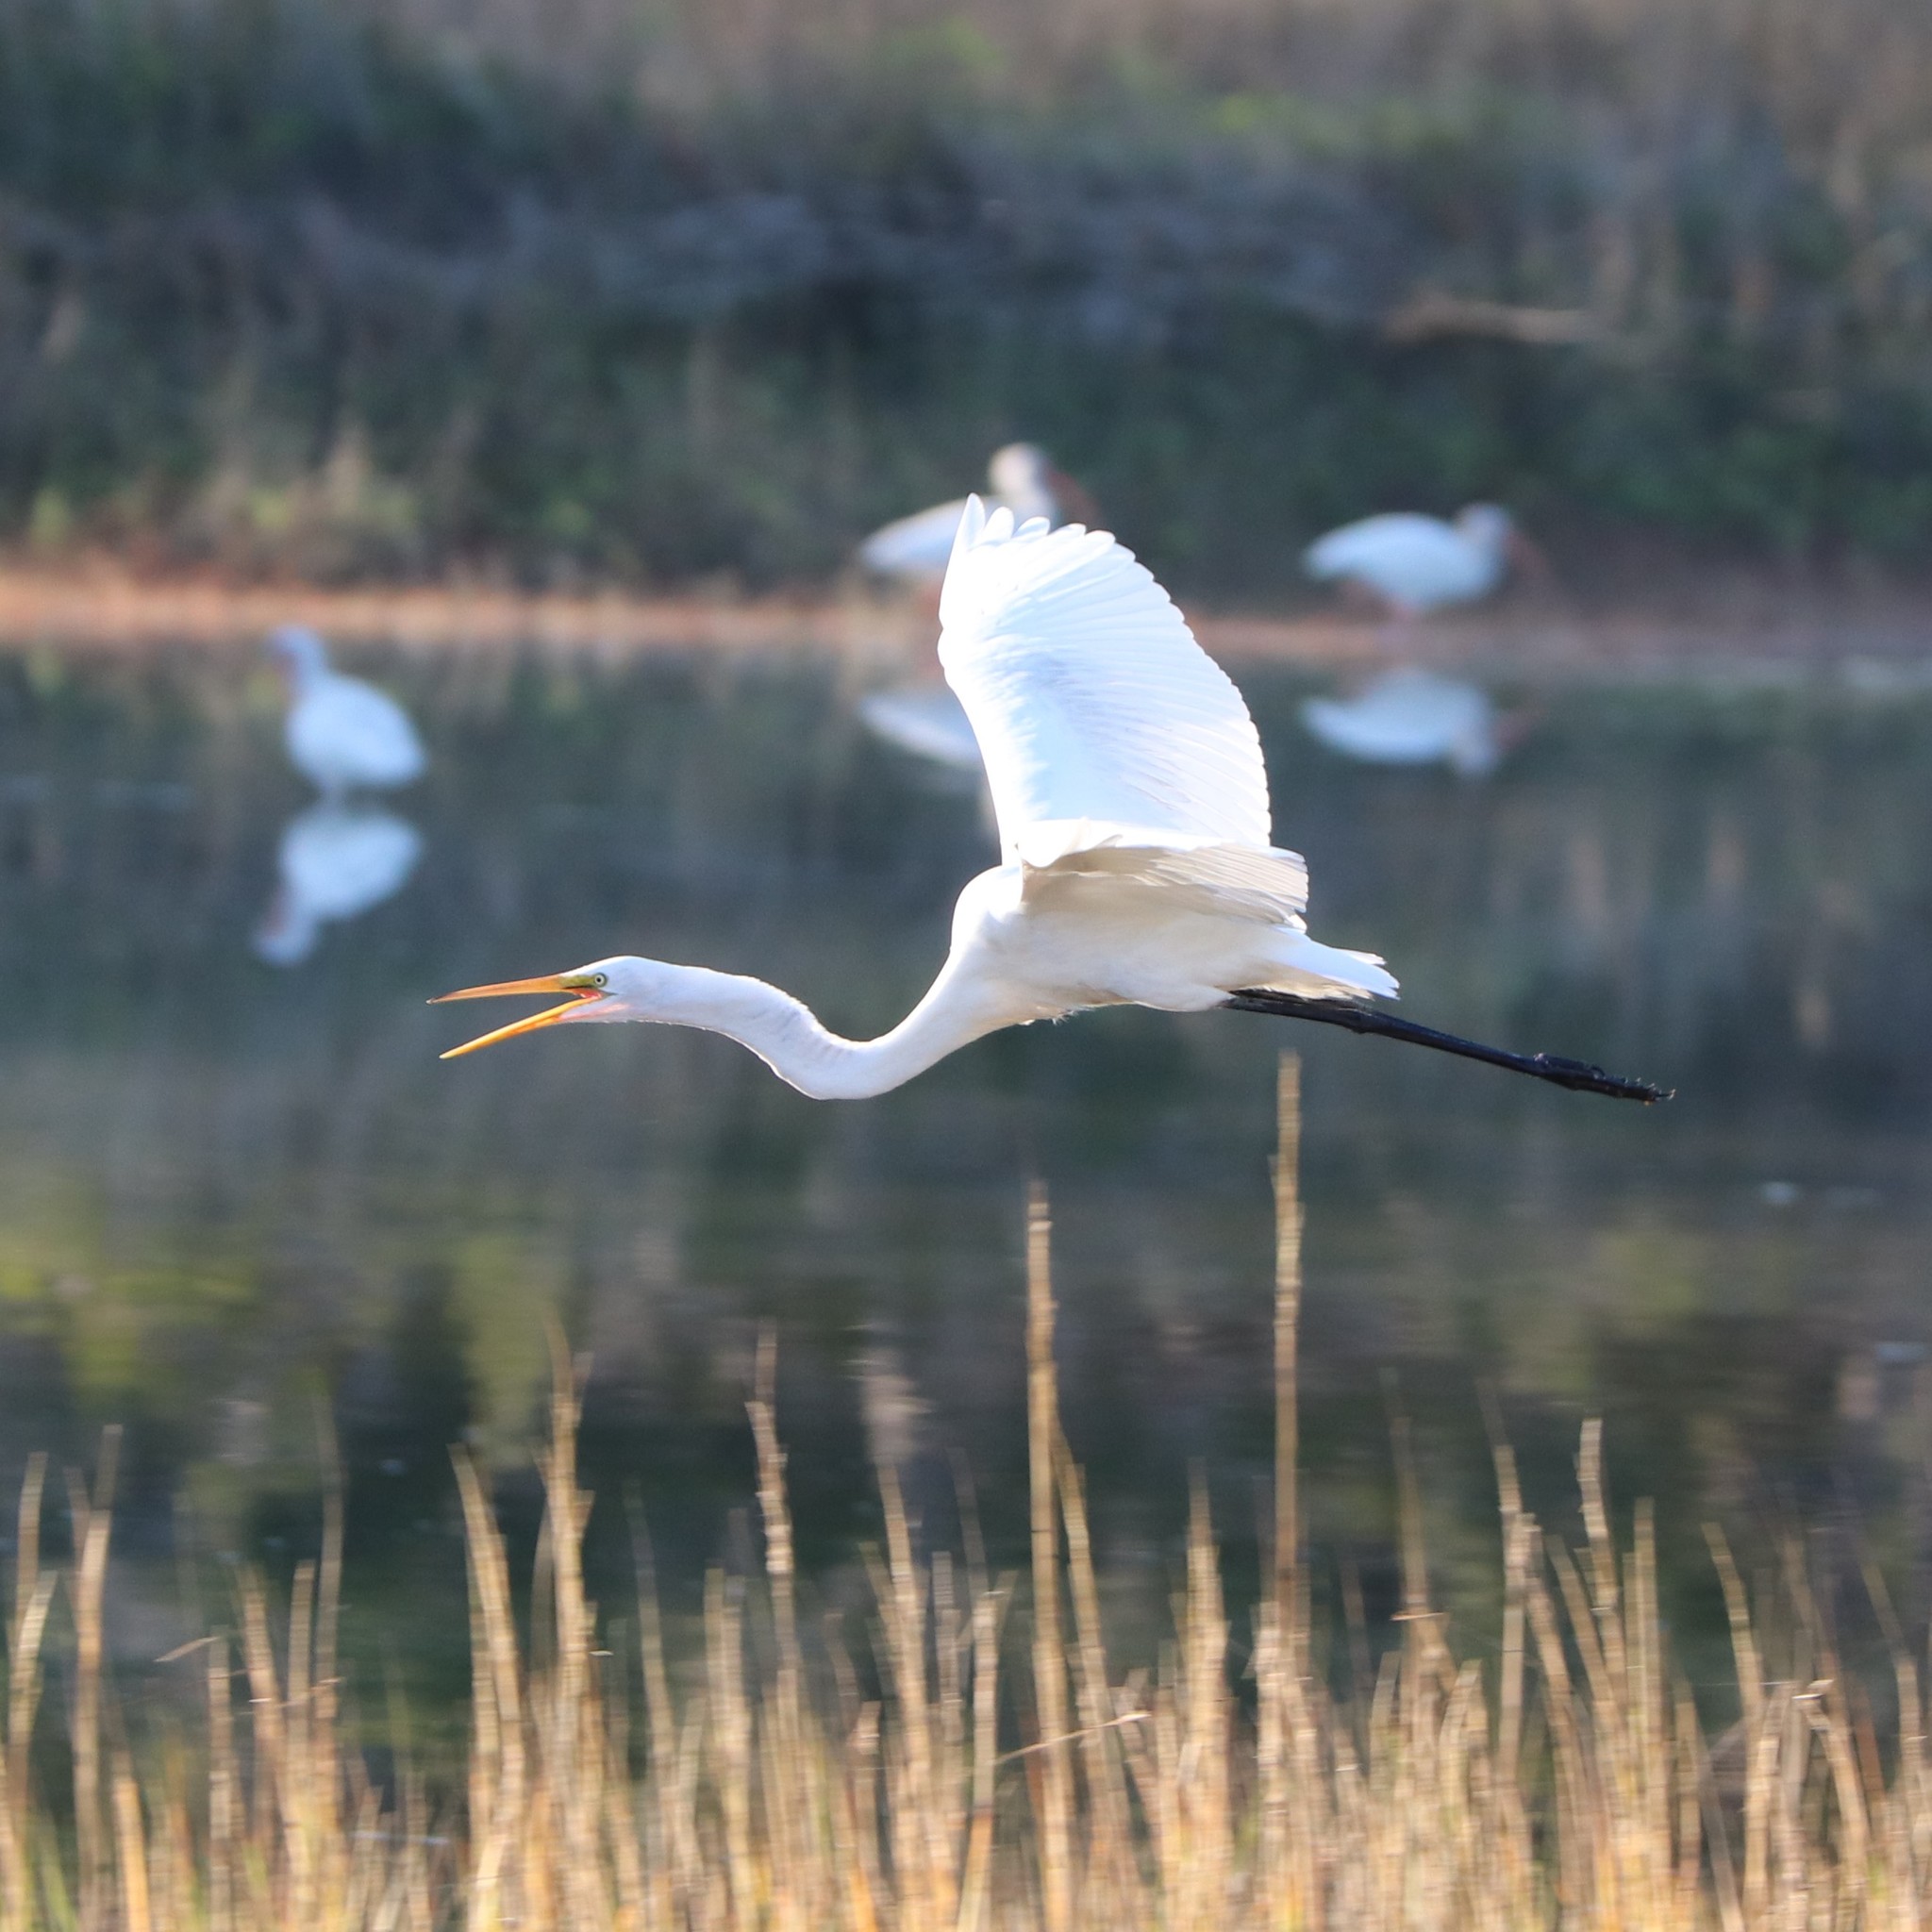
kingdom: Animalia
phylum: Chordata
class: Aves
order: Pelecaniformes
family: Ardeidae
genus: Ardea
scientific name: Ardea alba
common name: Great egret
